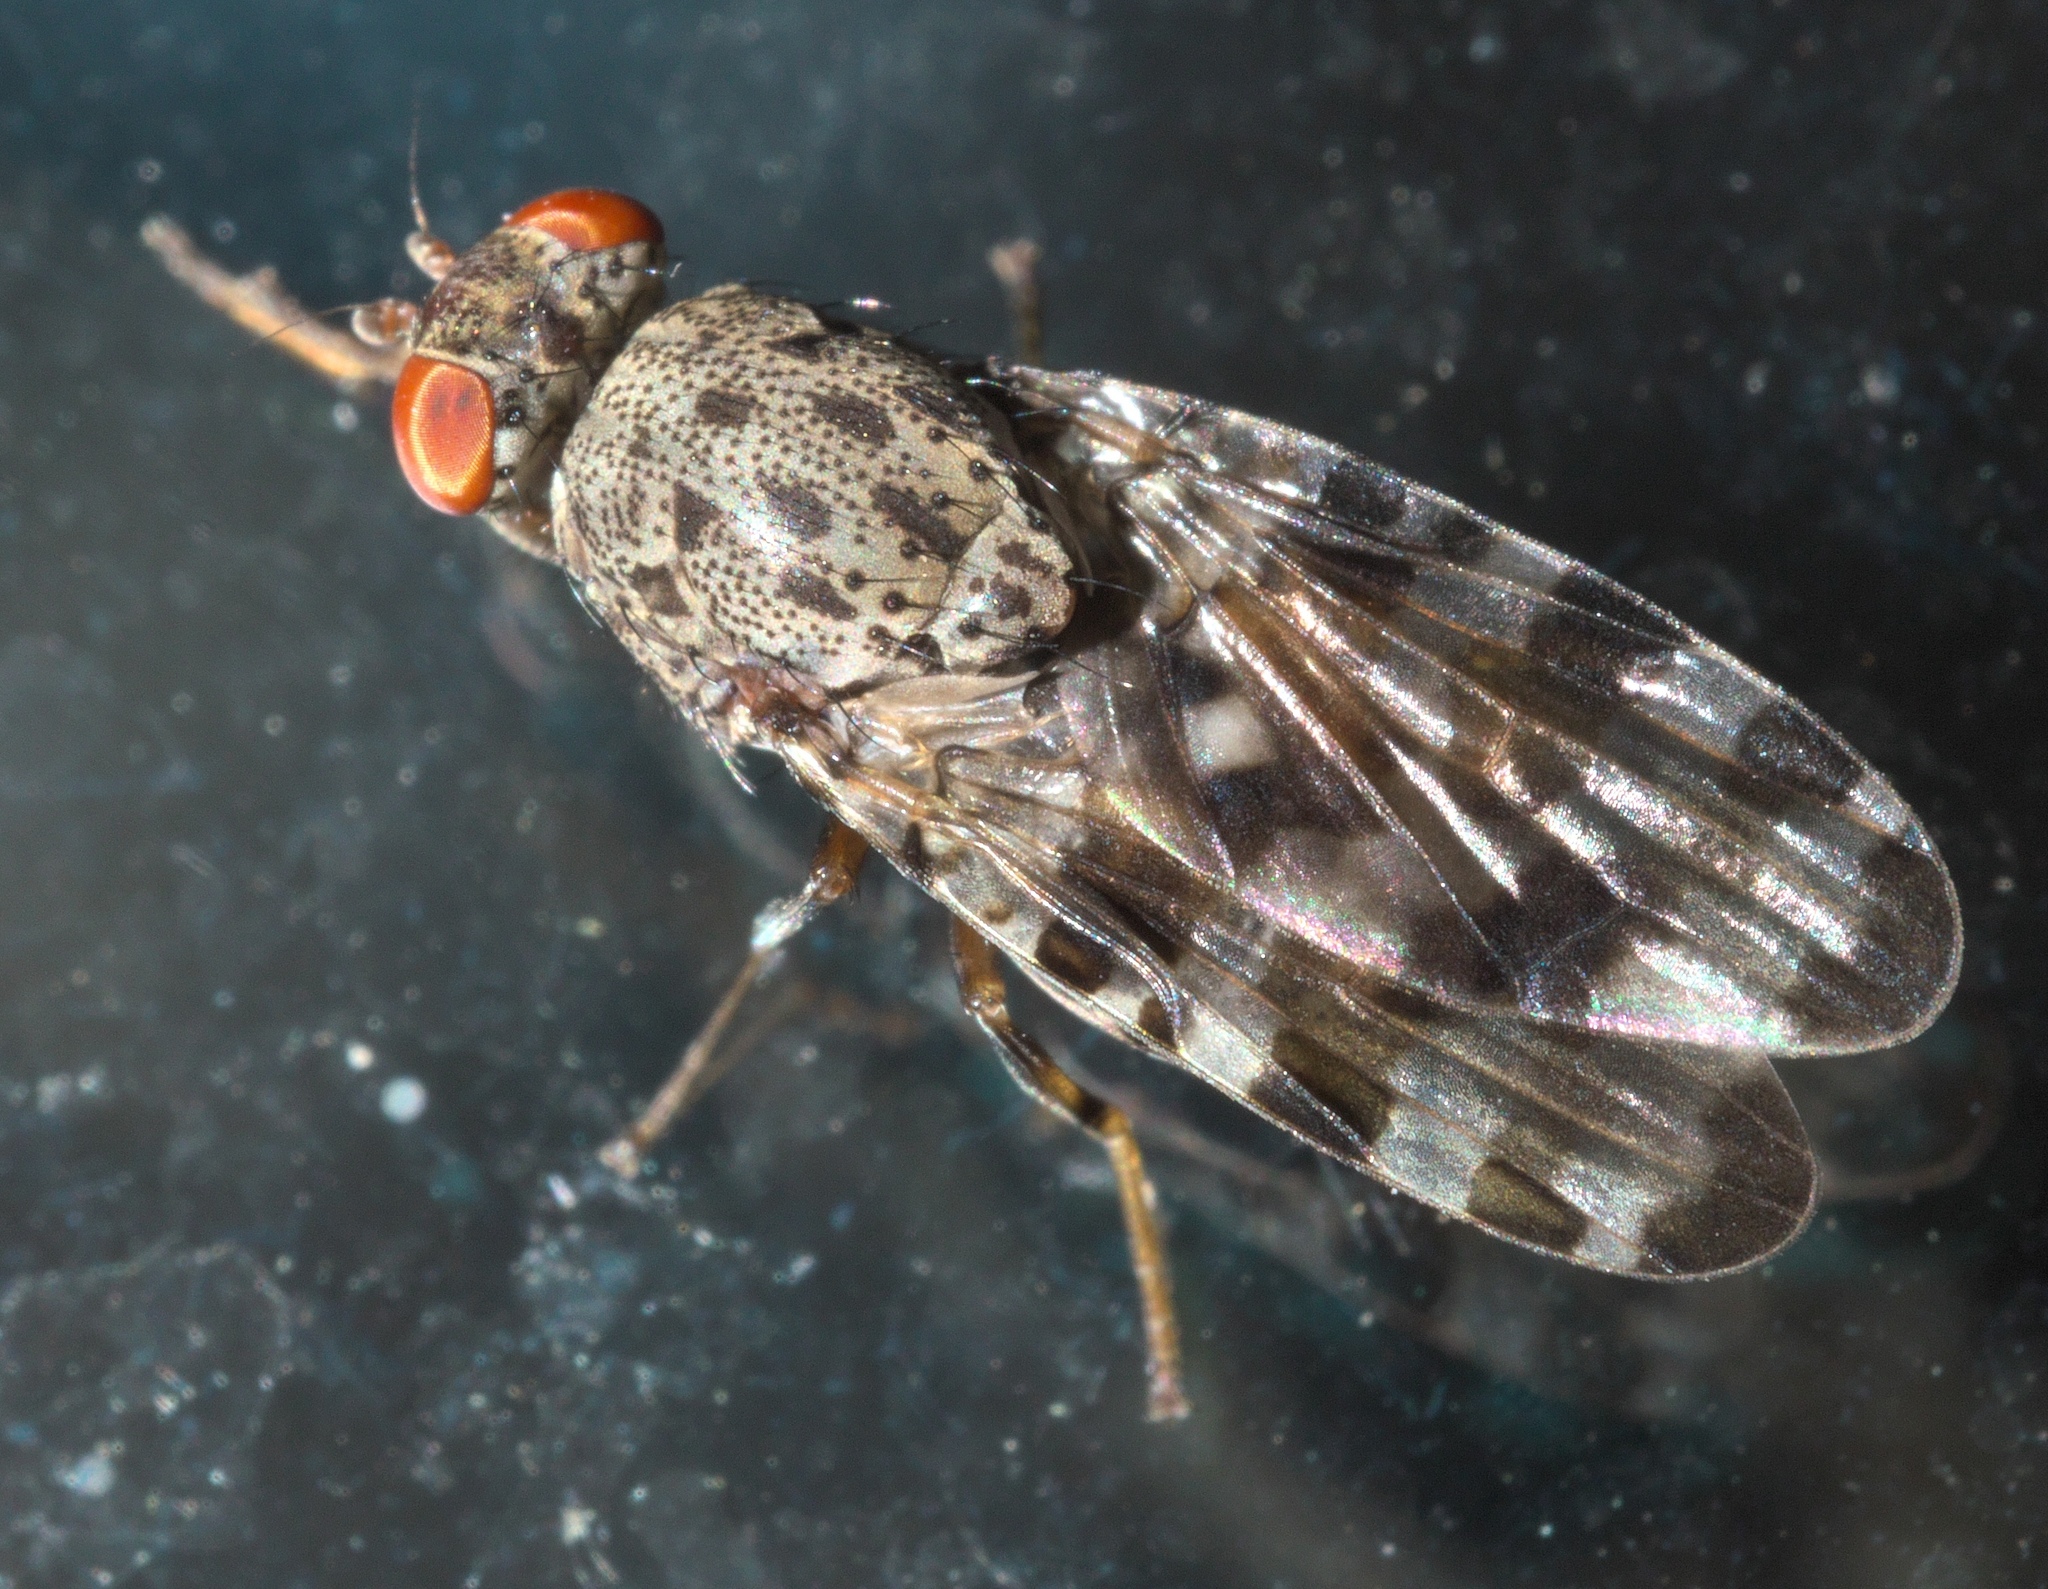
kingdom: Animalia
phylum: Arthropoda
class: Insecta
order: Diptera
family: Ulidiidae
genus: Pseudotephritis
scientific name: Pseudotephritis approximata
